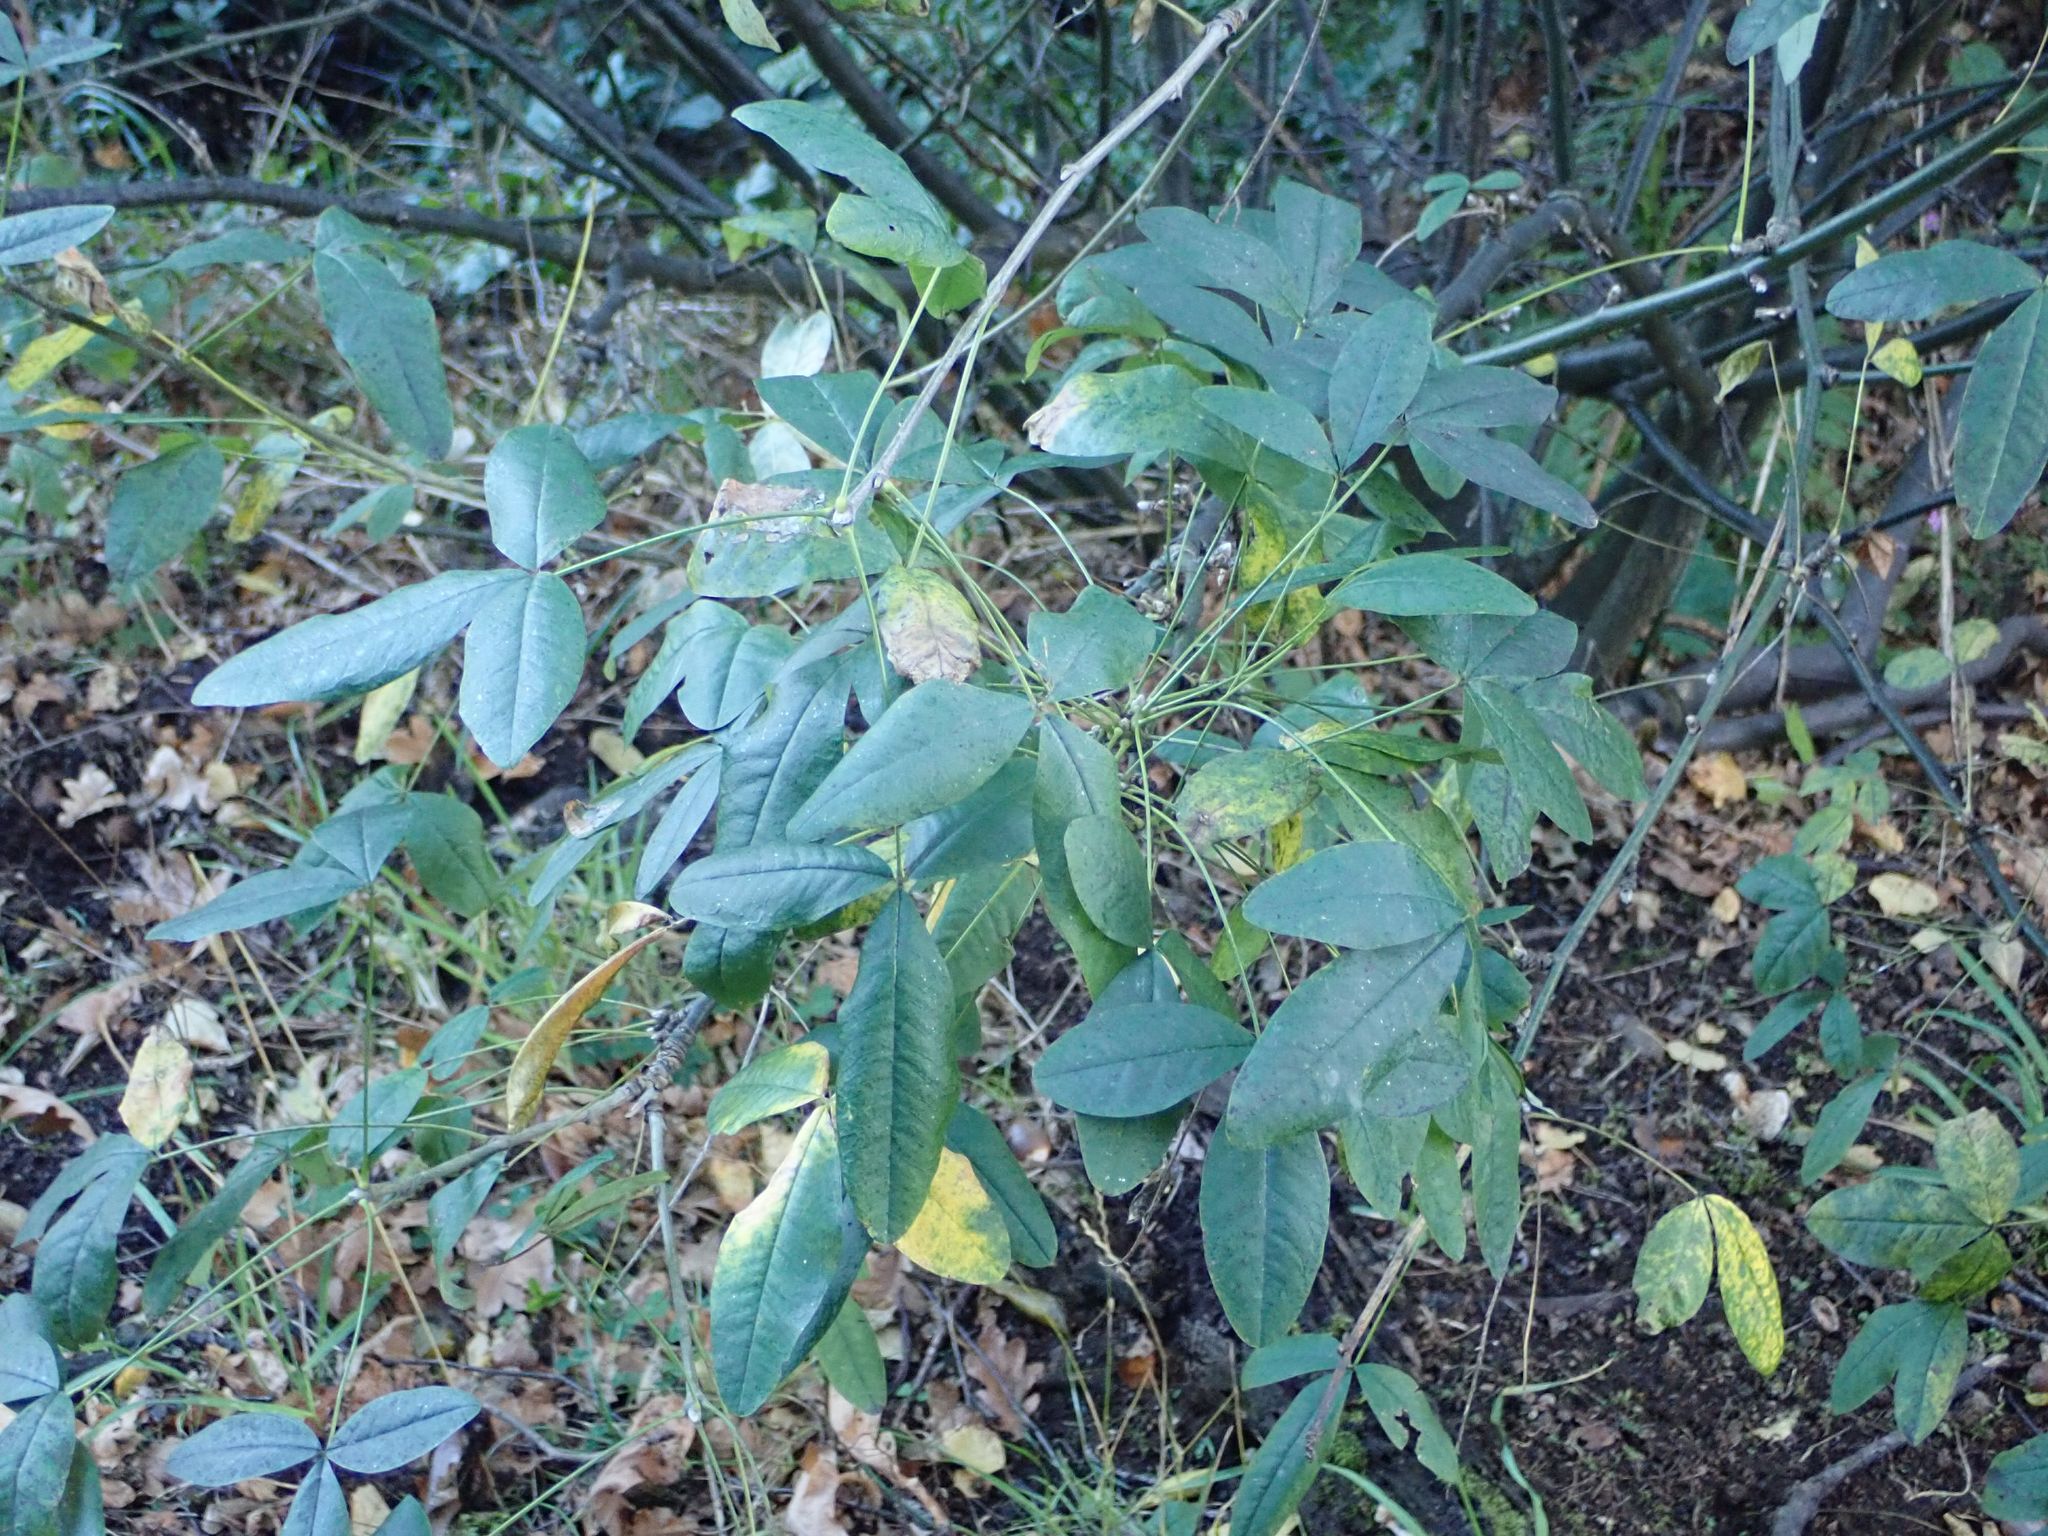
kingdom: Plantae
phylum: Tracheophyta
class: Magnoliopsida
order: Fabales
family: Fabaceae
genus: Laburnum
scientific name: Laburnum anagyroides
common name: Laburnum
